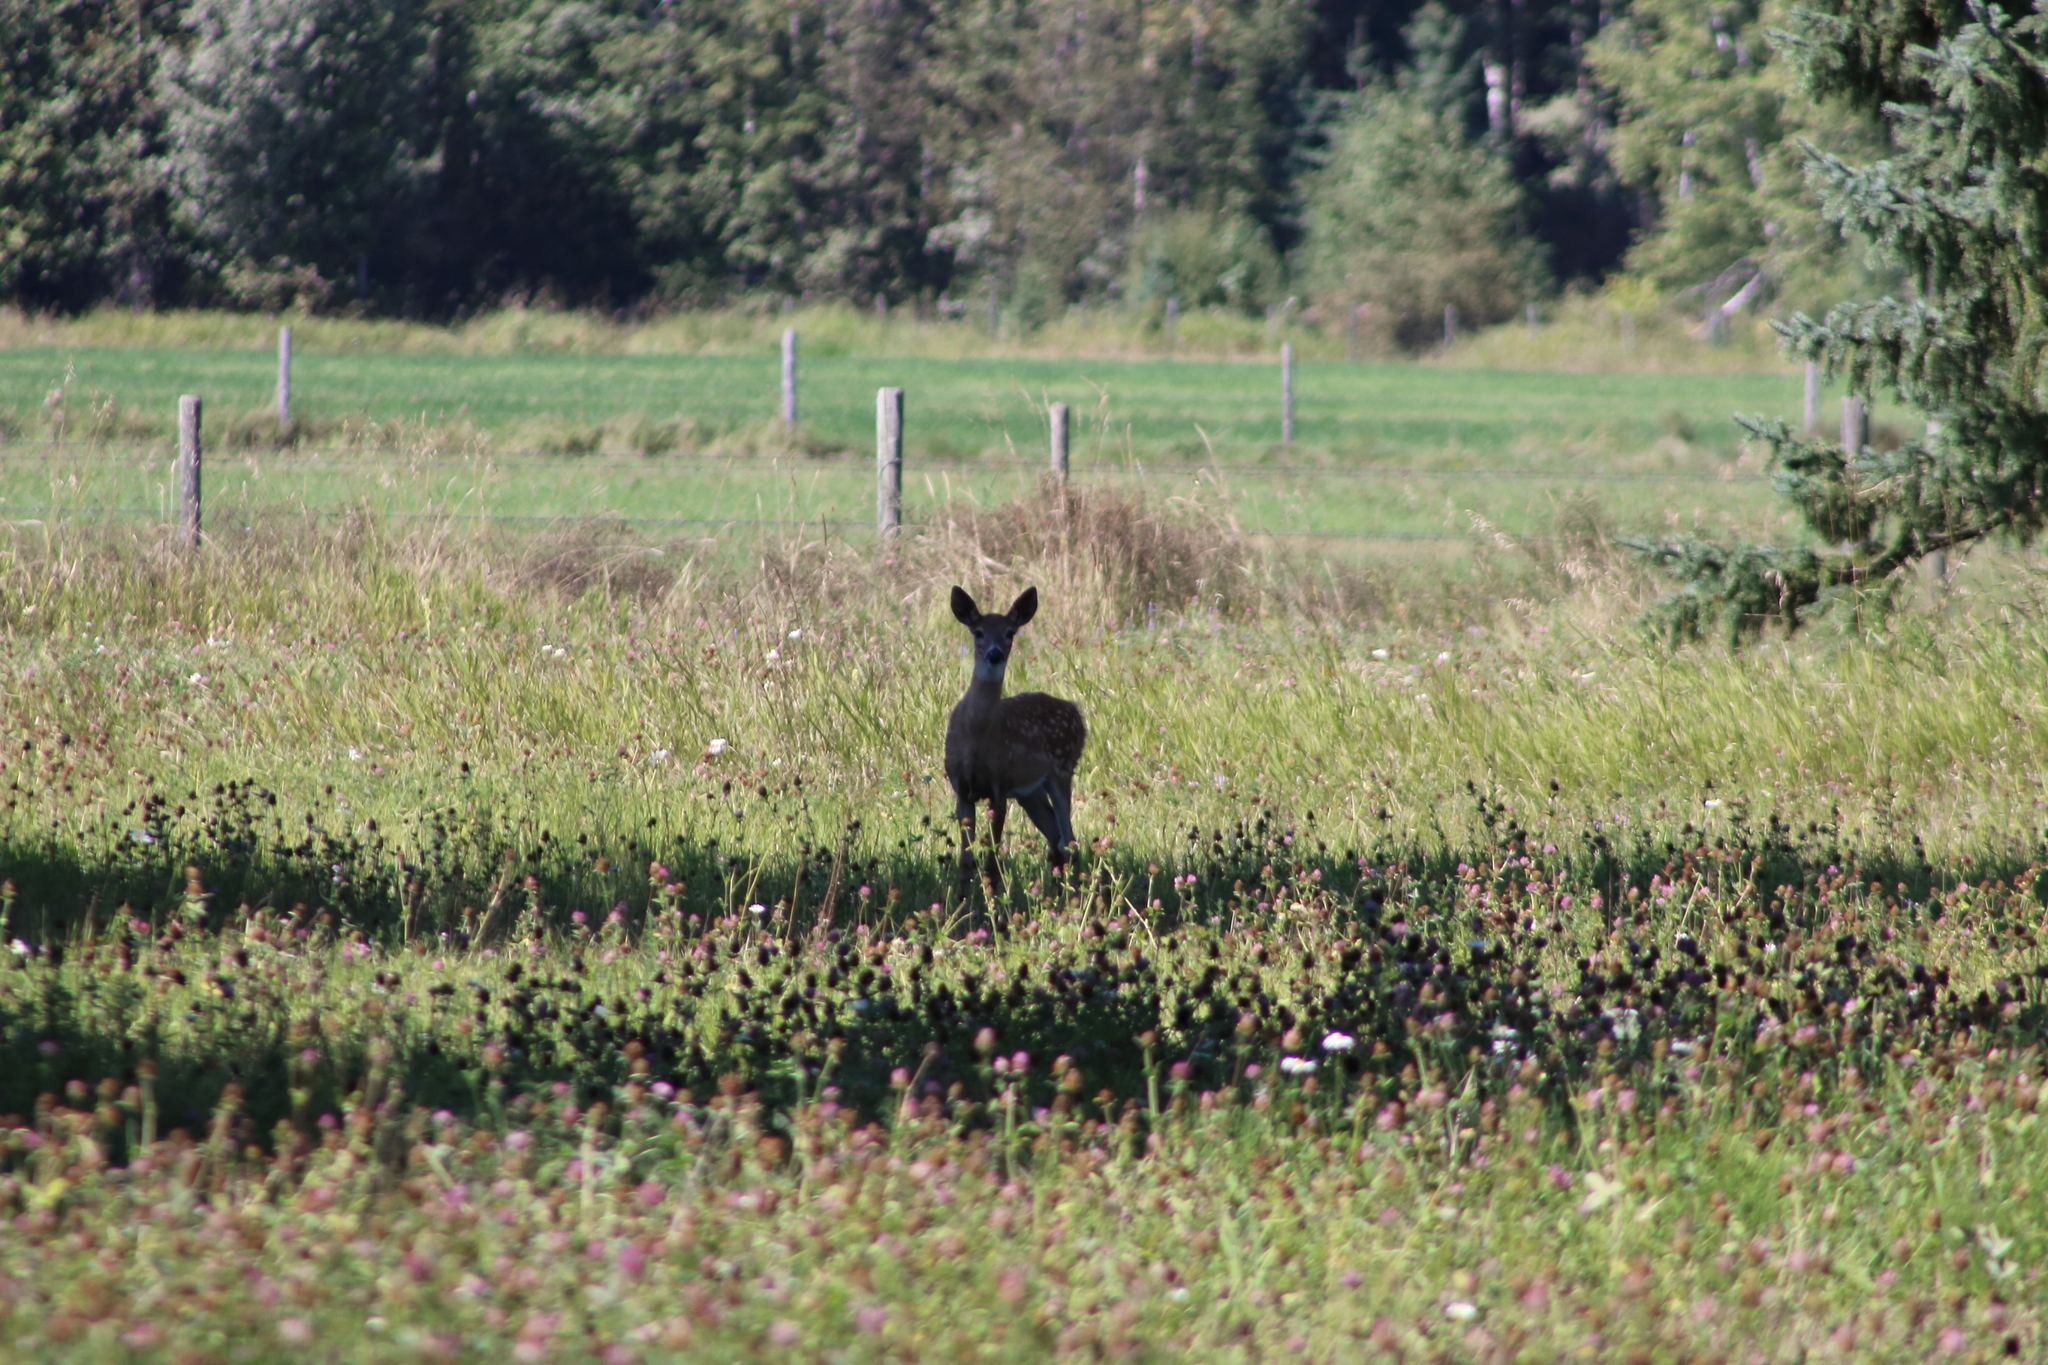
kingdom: Animalia
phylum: Chordata
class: Mammalia
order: Artiodactyla
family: Cervidae
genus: Odocoileus
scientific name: Odocoileus virginianus
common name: White-tailed deer
